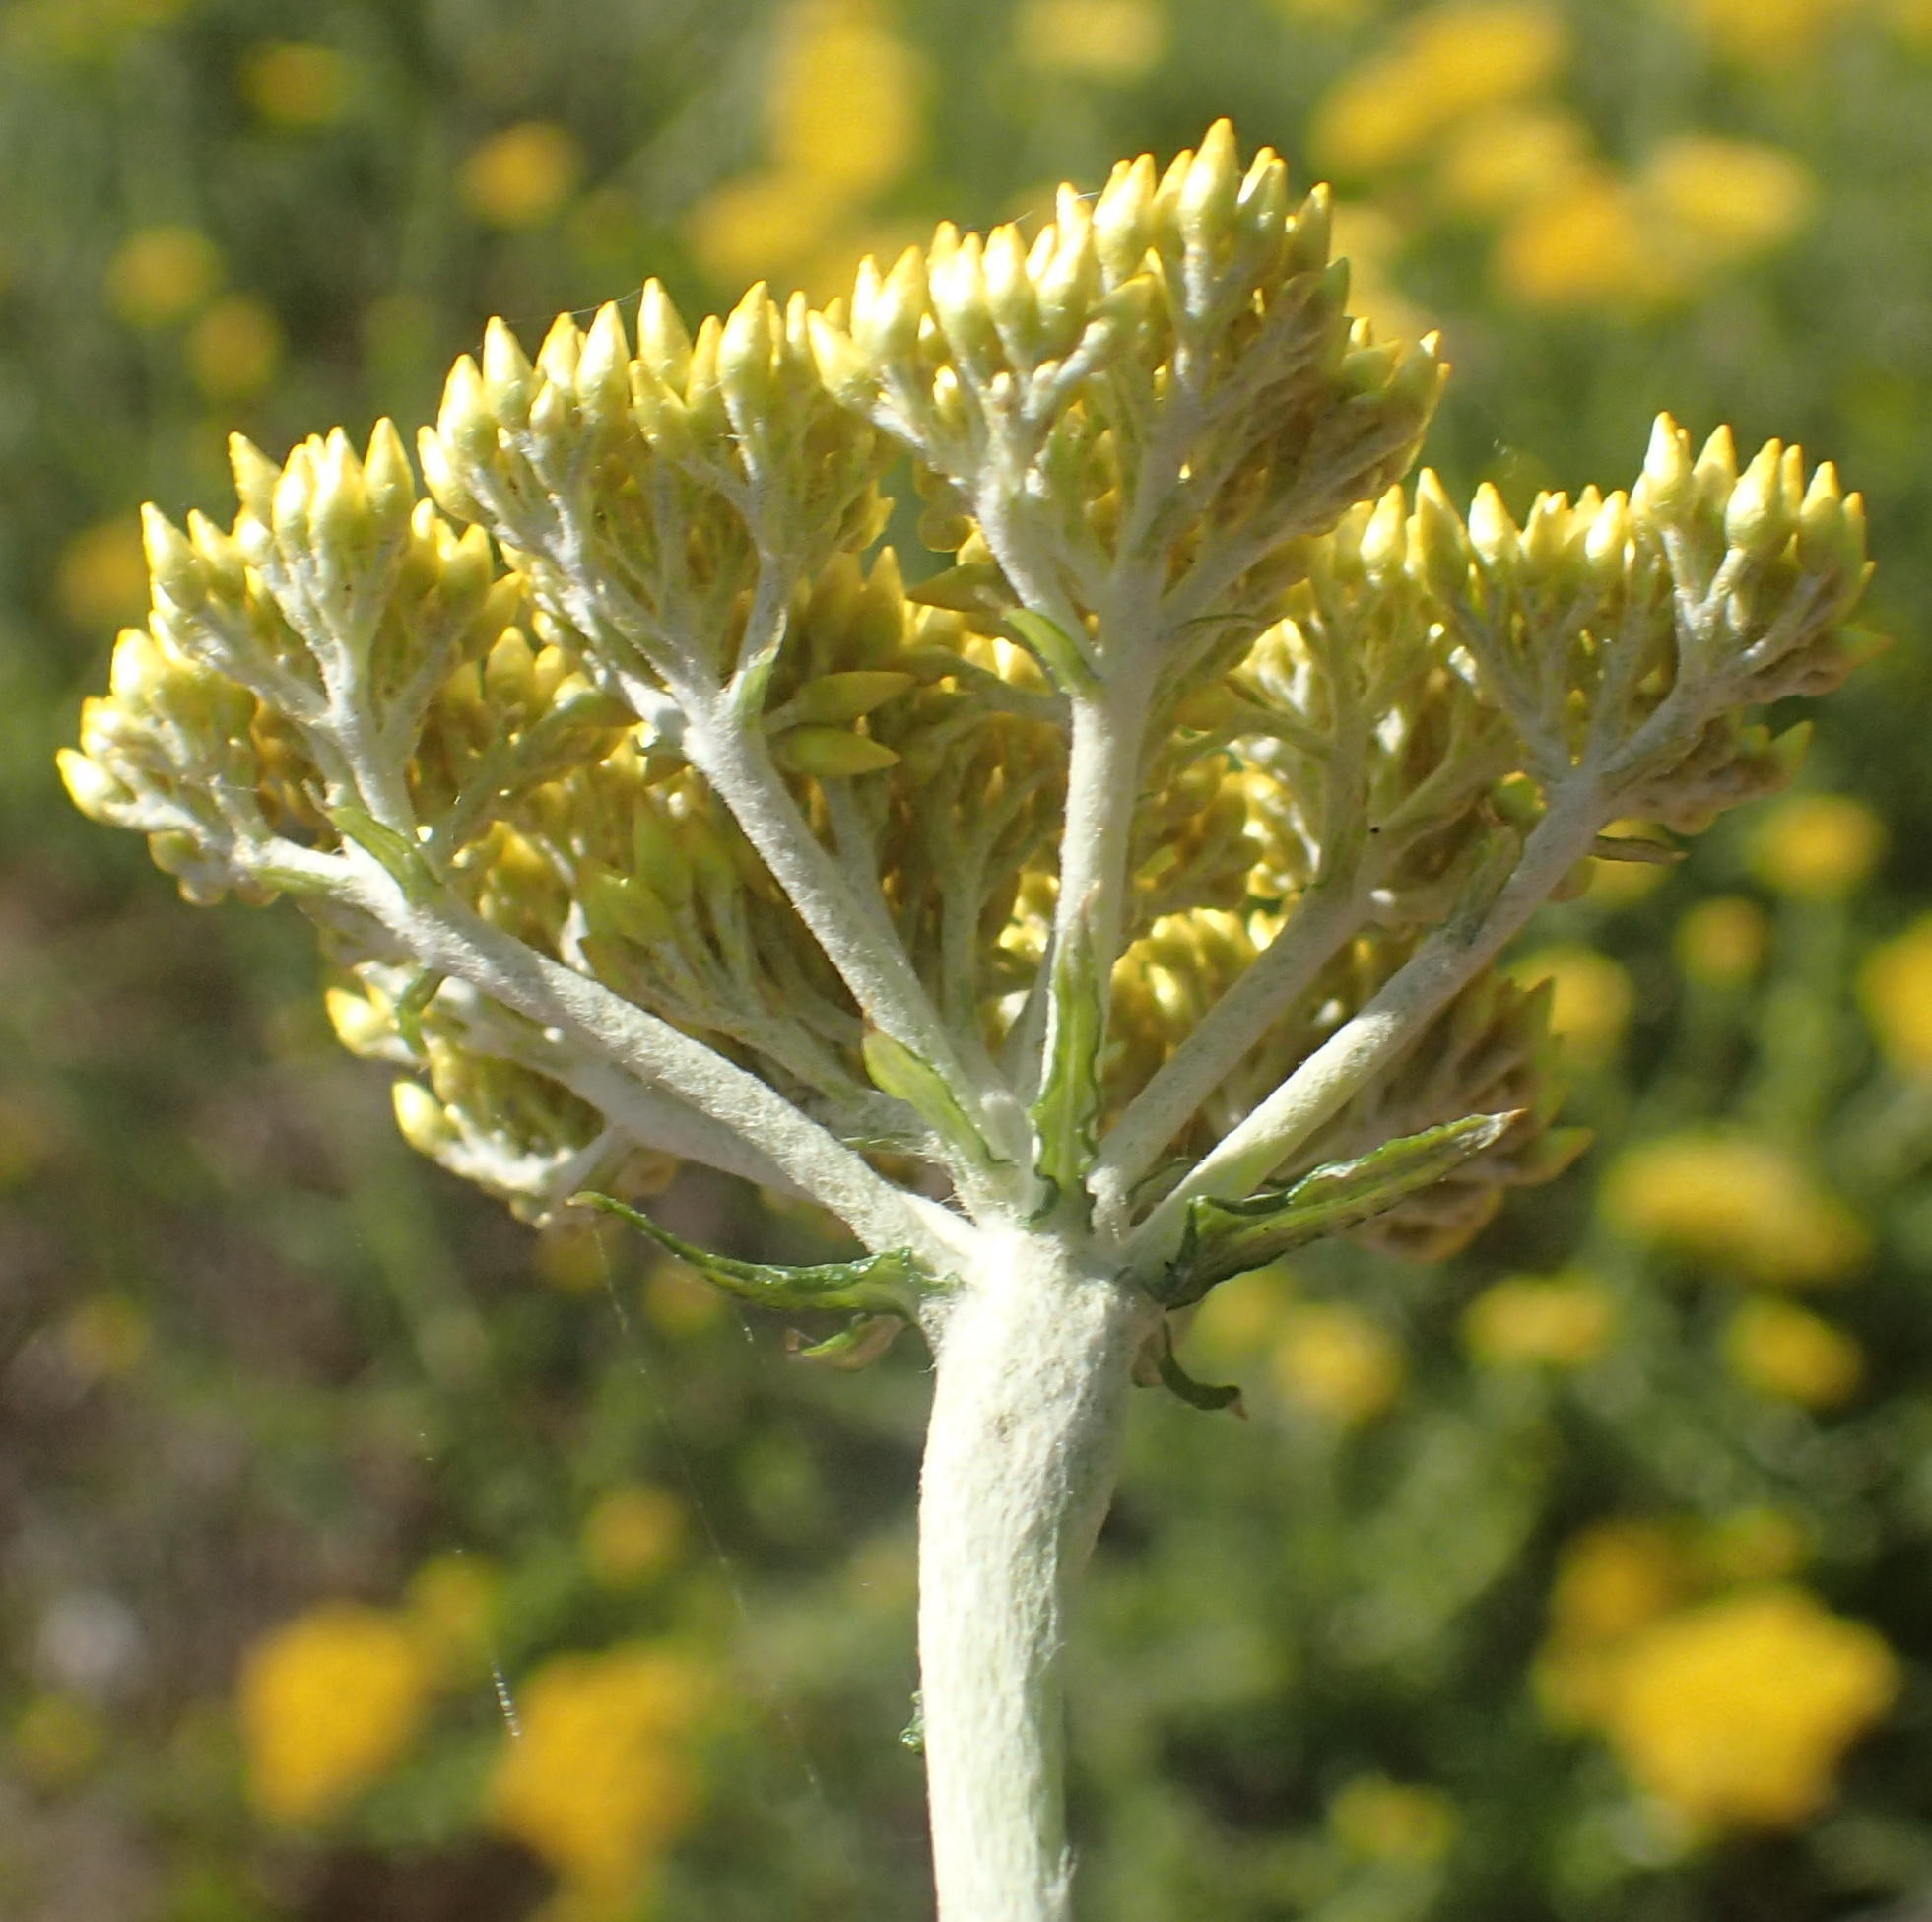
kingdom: Plantae
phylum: Tracheophyta
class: Magnoliopsida
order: Asterales
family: Asteraceae
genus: Helichrysum
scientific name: Helichrysum cymosum
